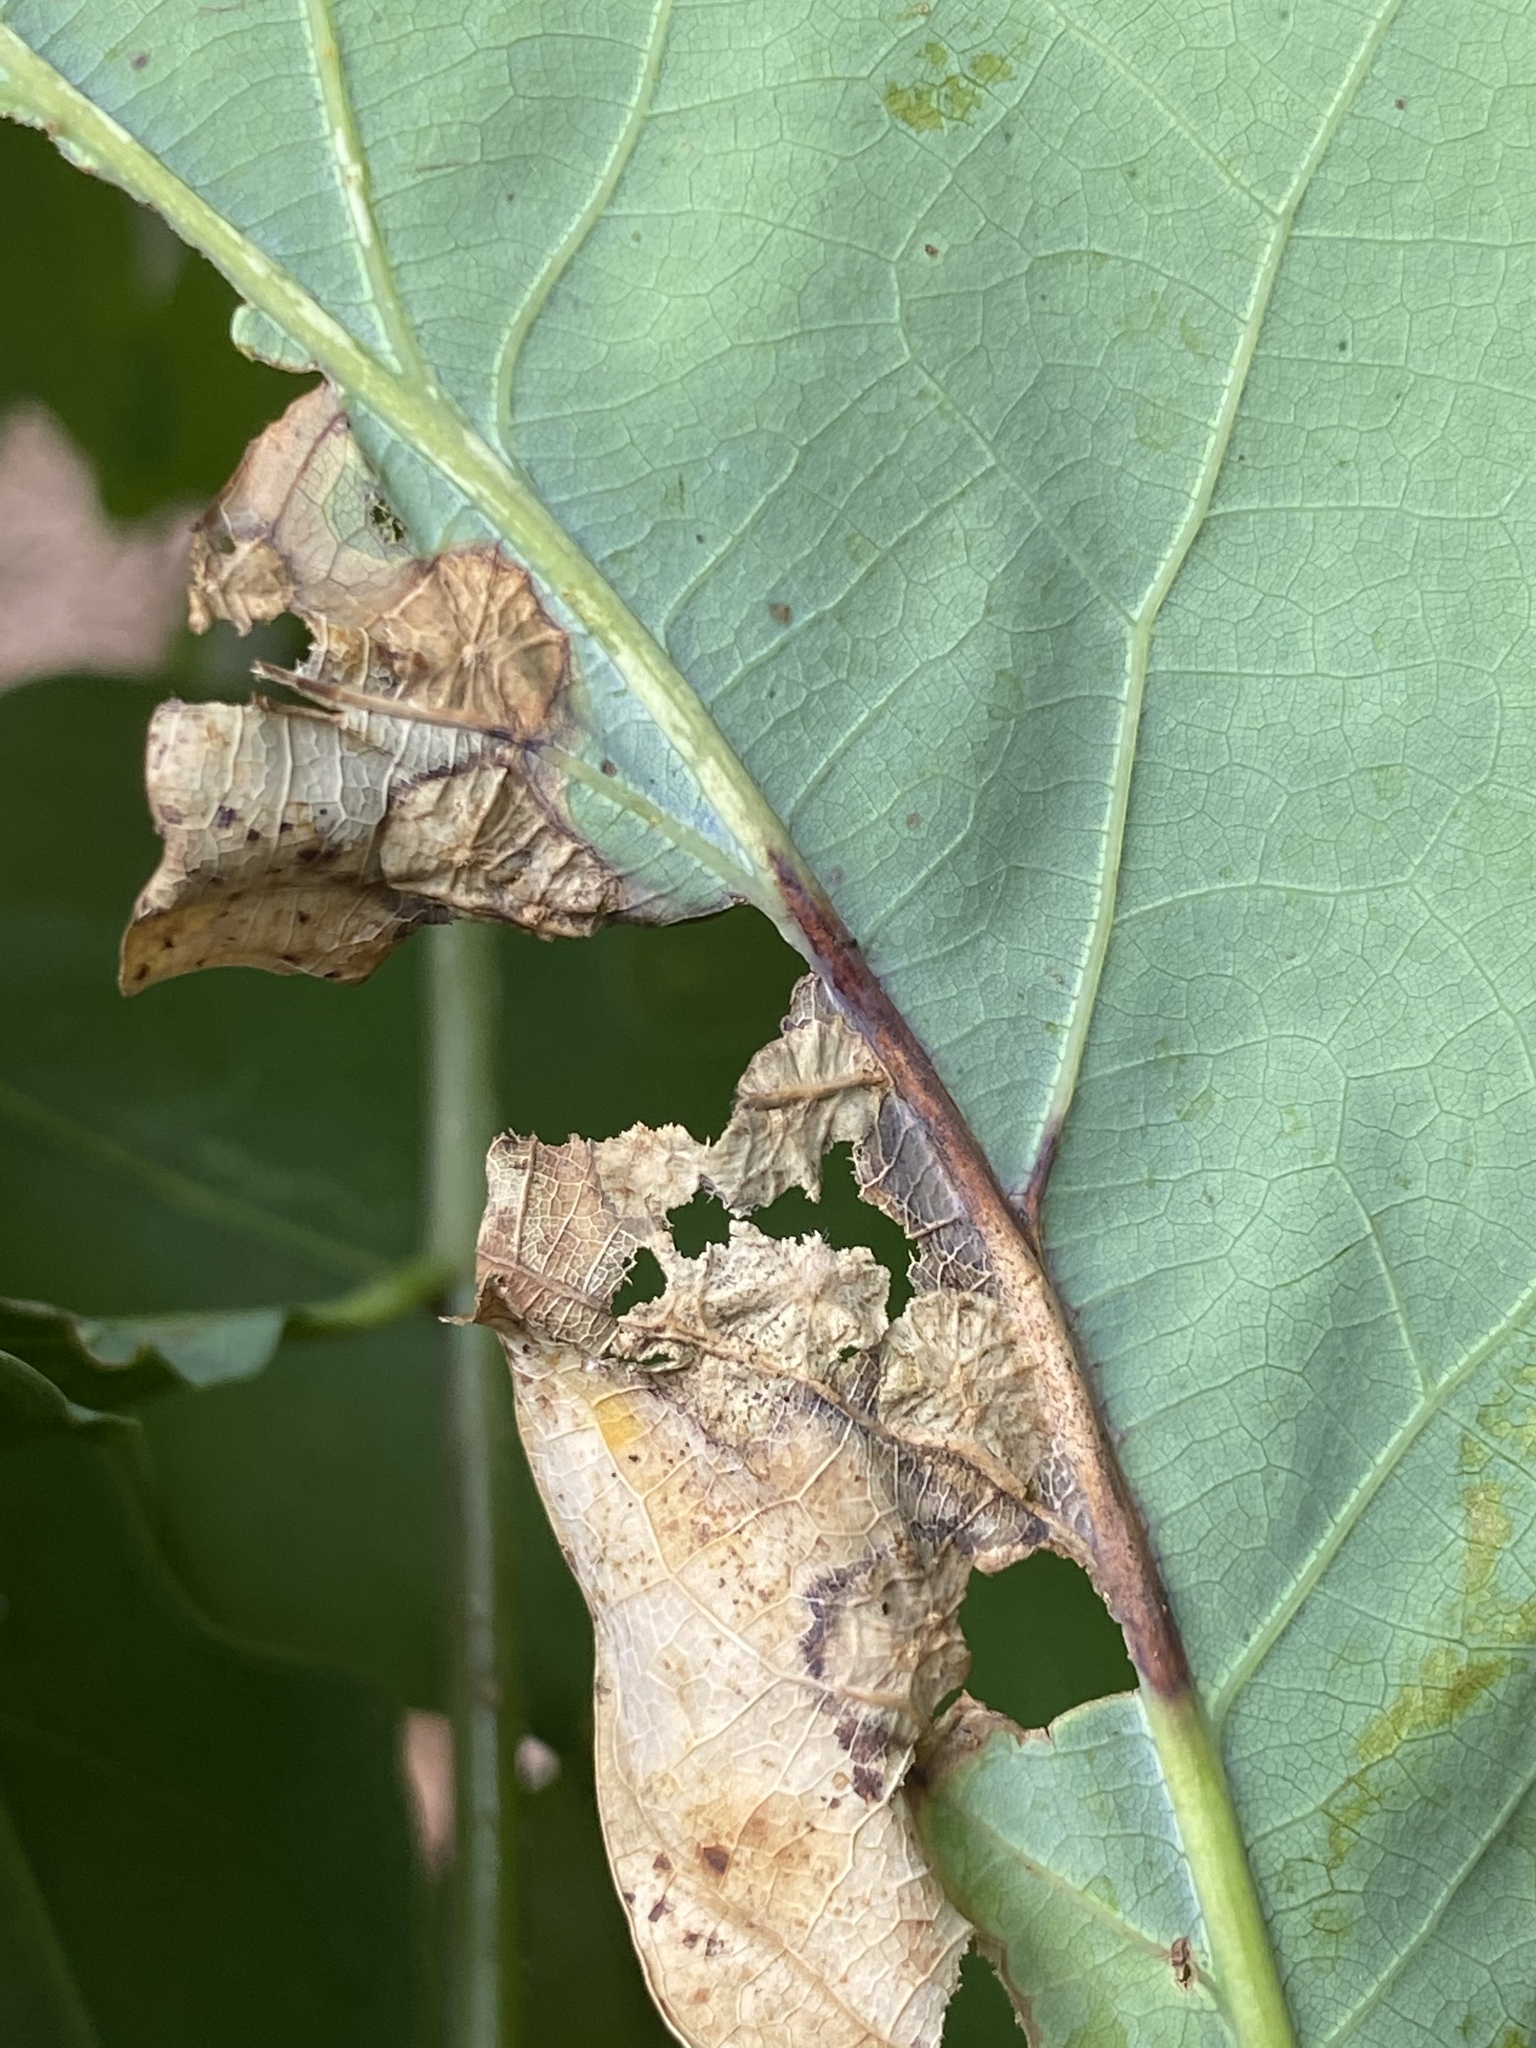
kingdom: Animalia
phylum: Arthropoda
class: Insecta
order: Hymenoptera
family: Cynipidae
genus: Callirhytis
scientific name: Callirhytis
